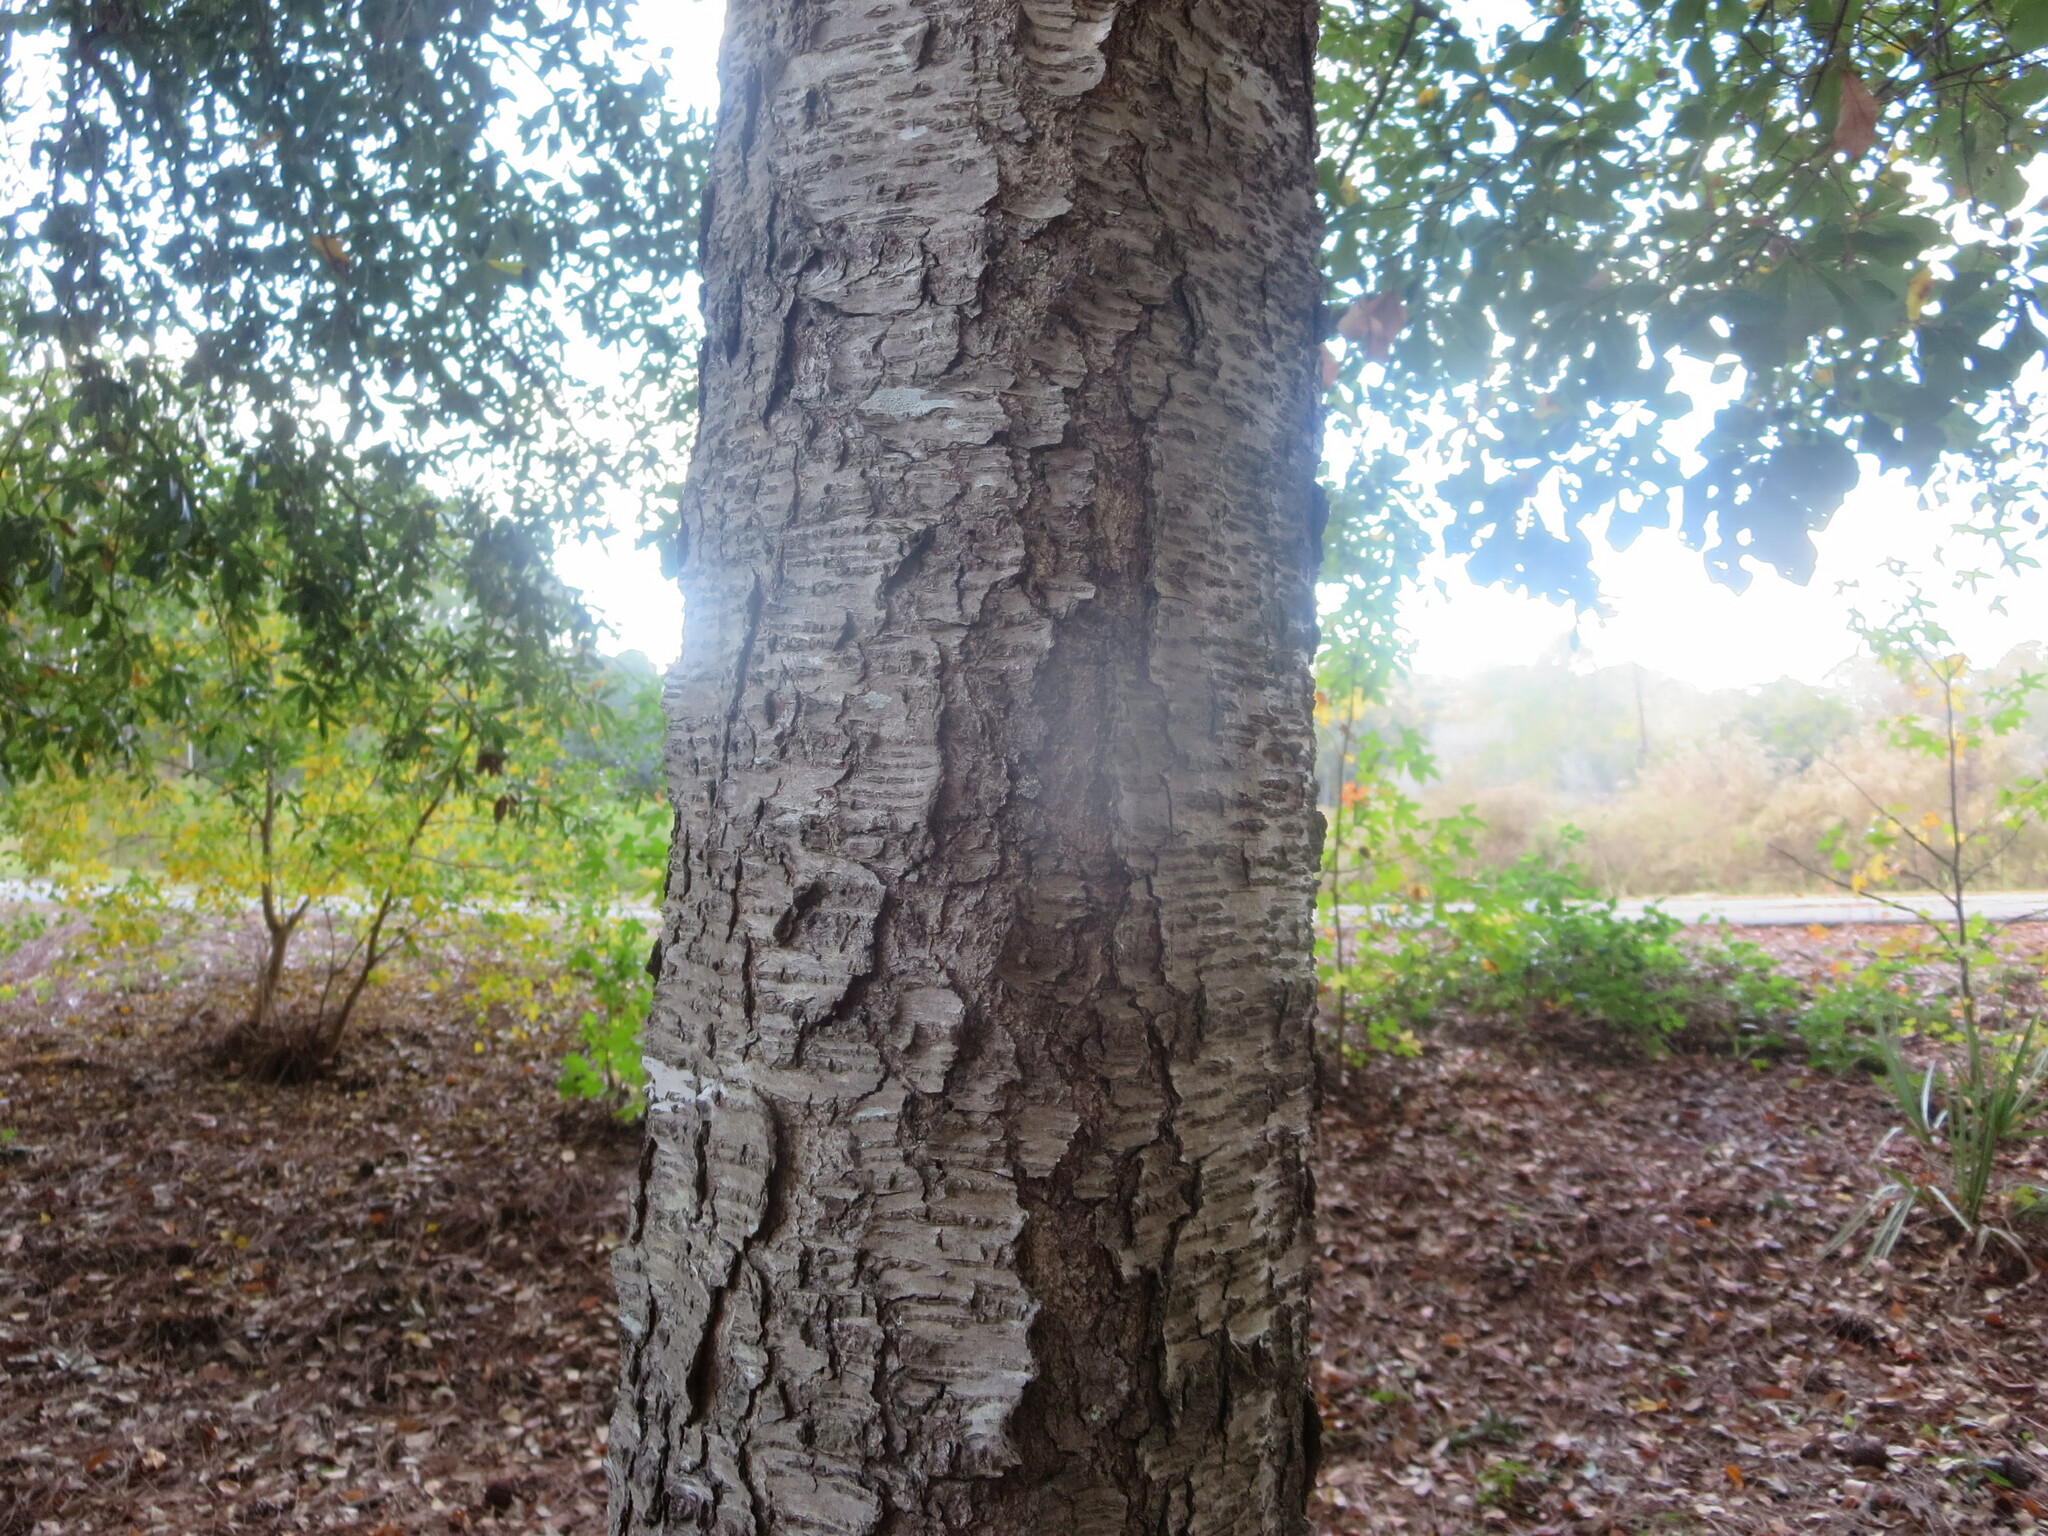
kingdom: Plantae
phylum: Tracheophyta
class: Magnoliopsida
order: Rosales
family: Rosaceae
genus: Prunus
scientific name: Prunus serotina
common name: Black cherry
